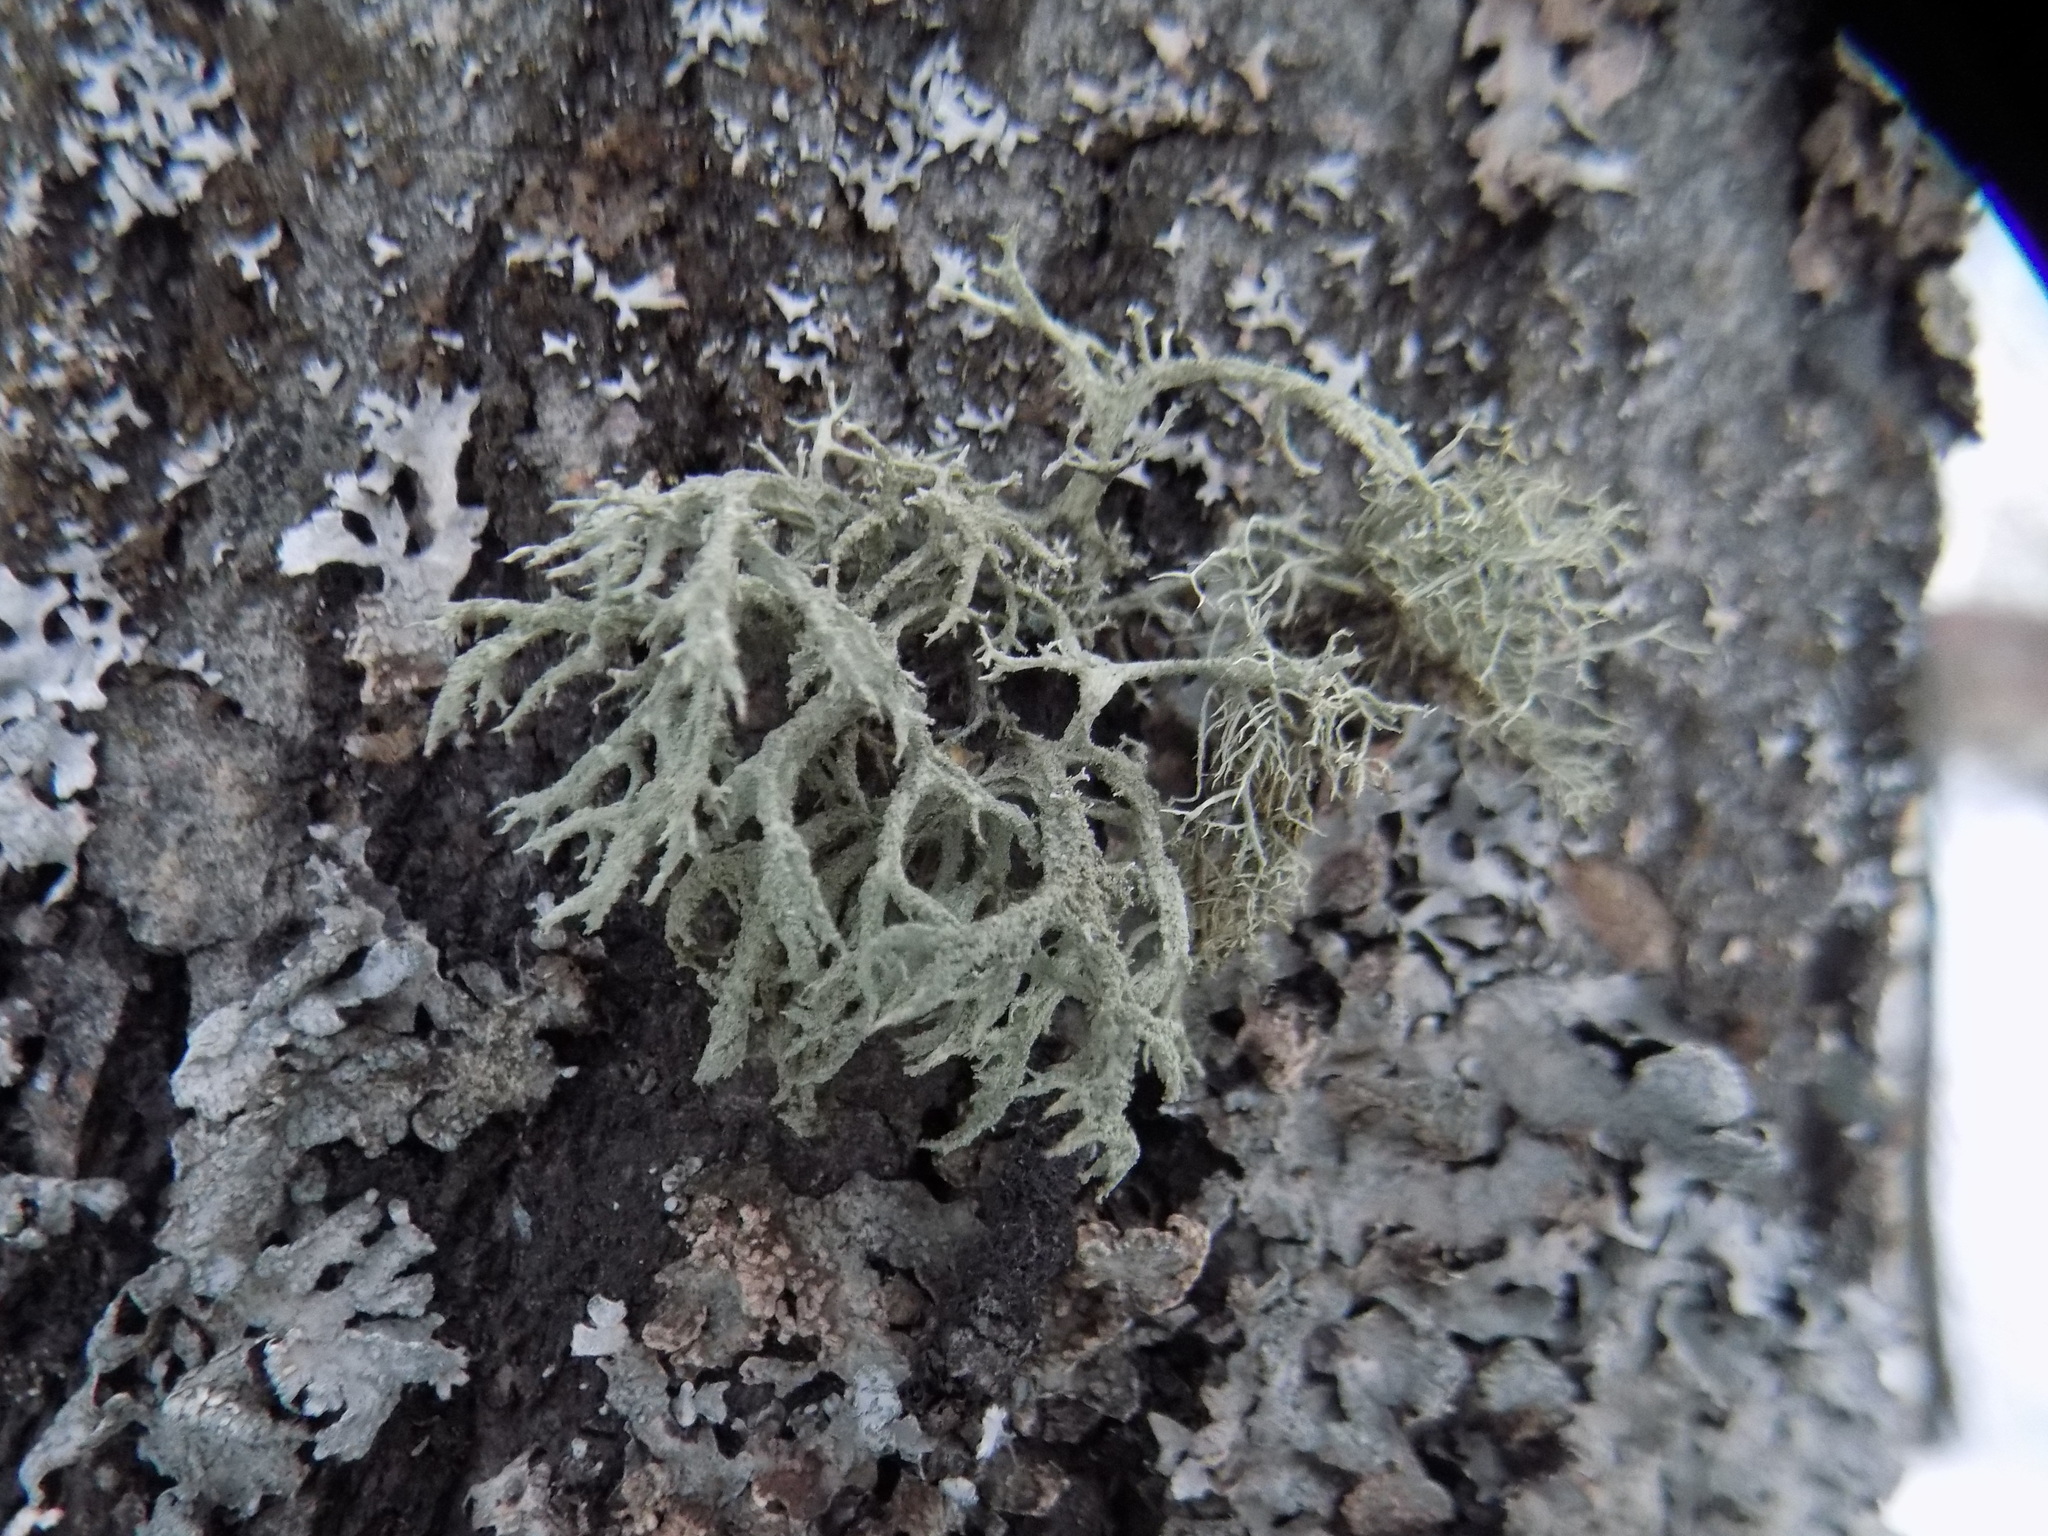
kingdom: Fungi
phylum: Ascomycota
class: Lecanoromycetes
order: Lecanorales
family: Parmeliaceae
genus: Evernia
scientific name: Evernia mesomorpha
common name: Boreal oak moss lichen
